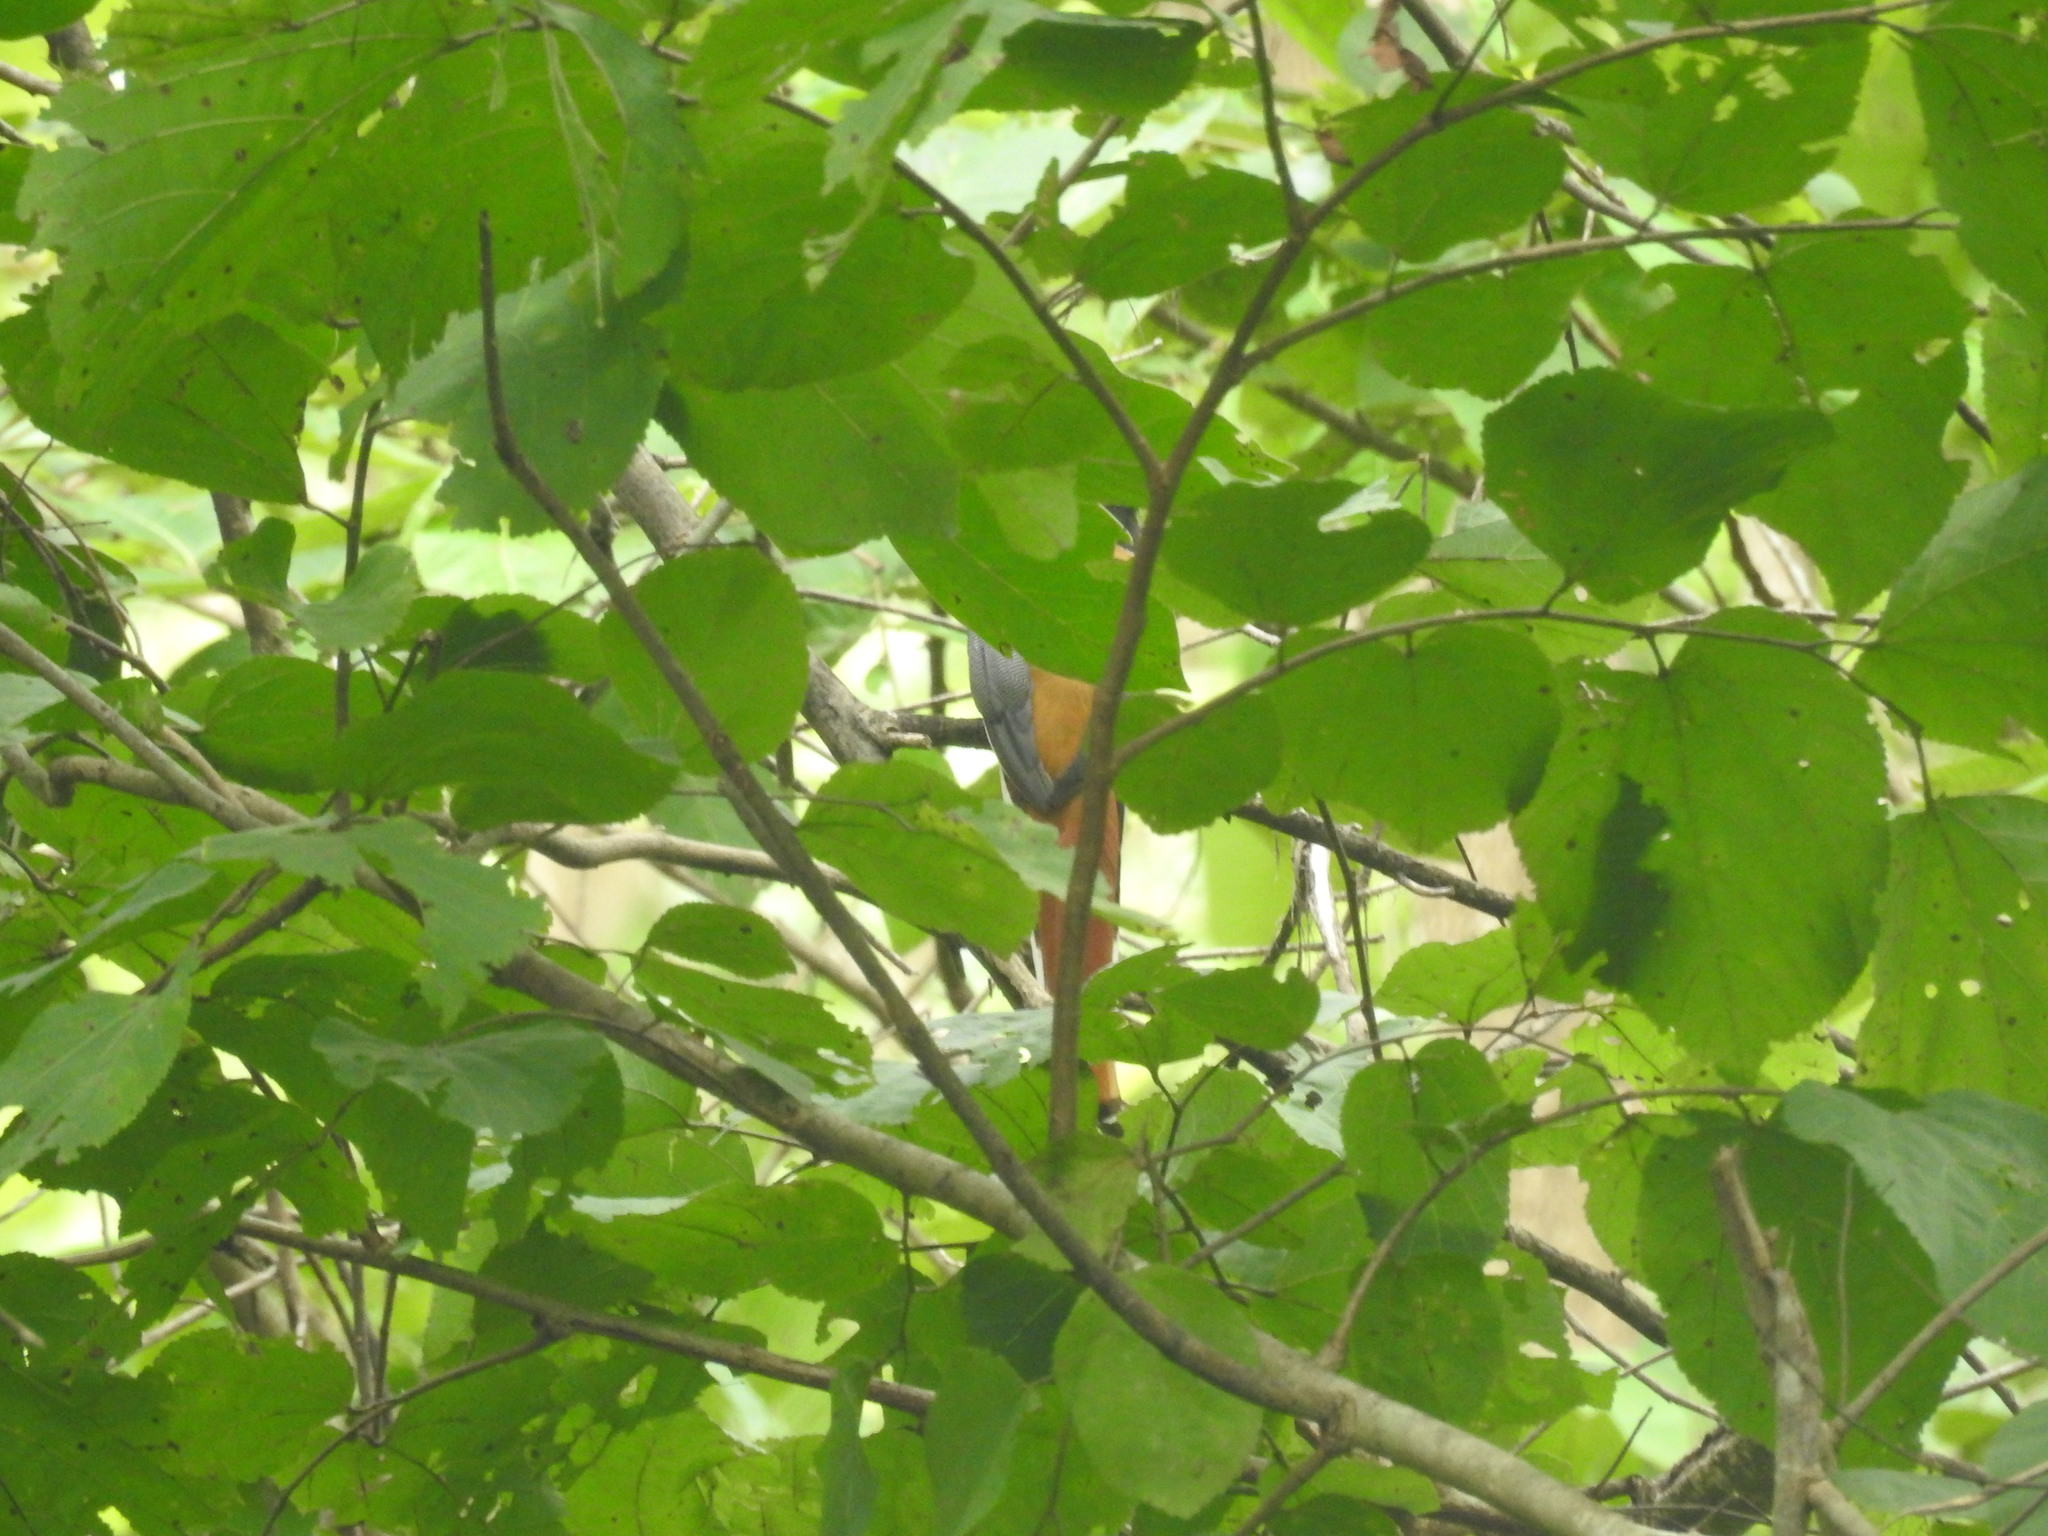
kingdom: Animalia
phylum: Chordata
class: Aves
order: Trogoniformes
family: Trogonidae
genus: Harpactes
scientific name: Harpactes fasciatus
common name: Malabar trogon
